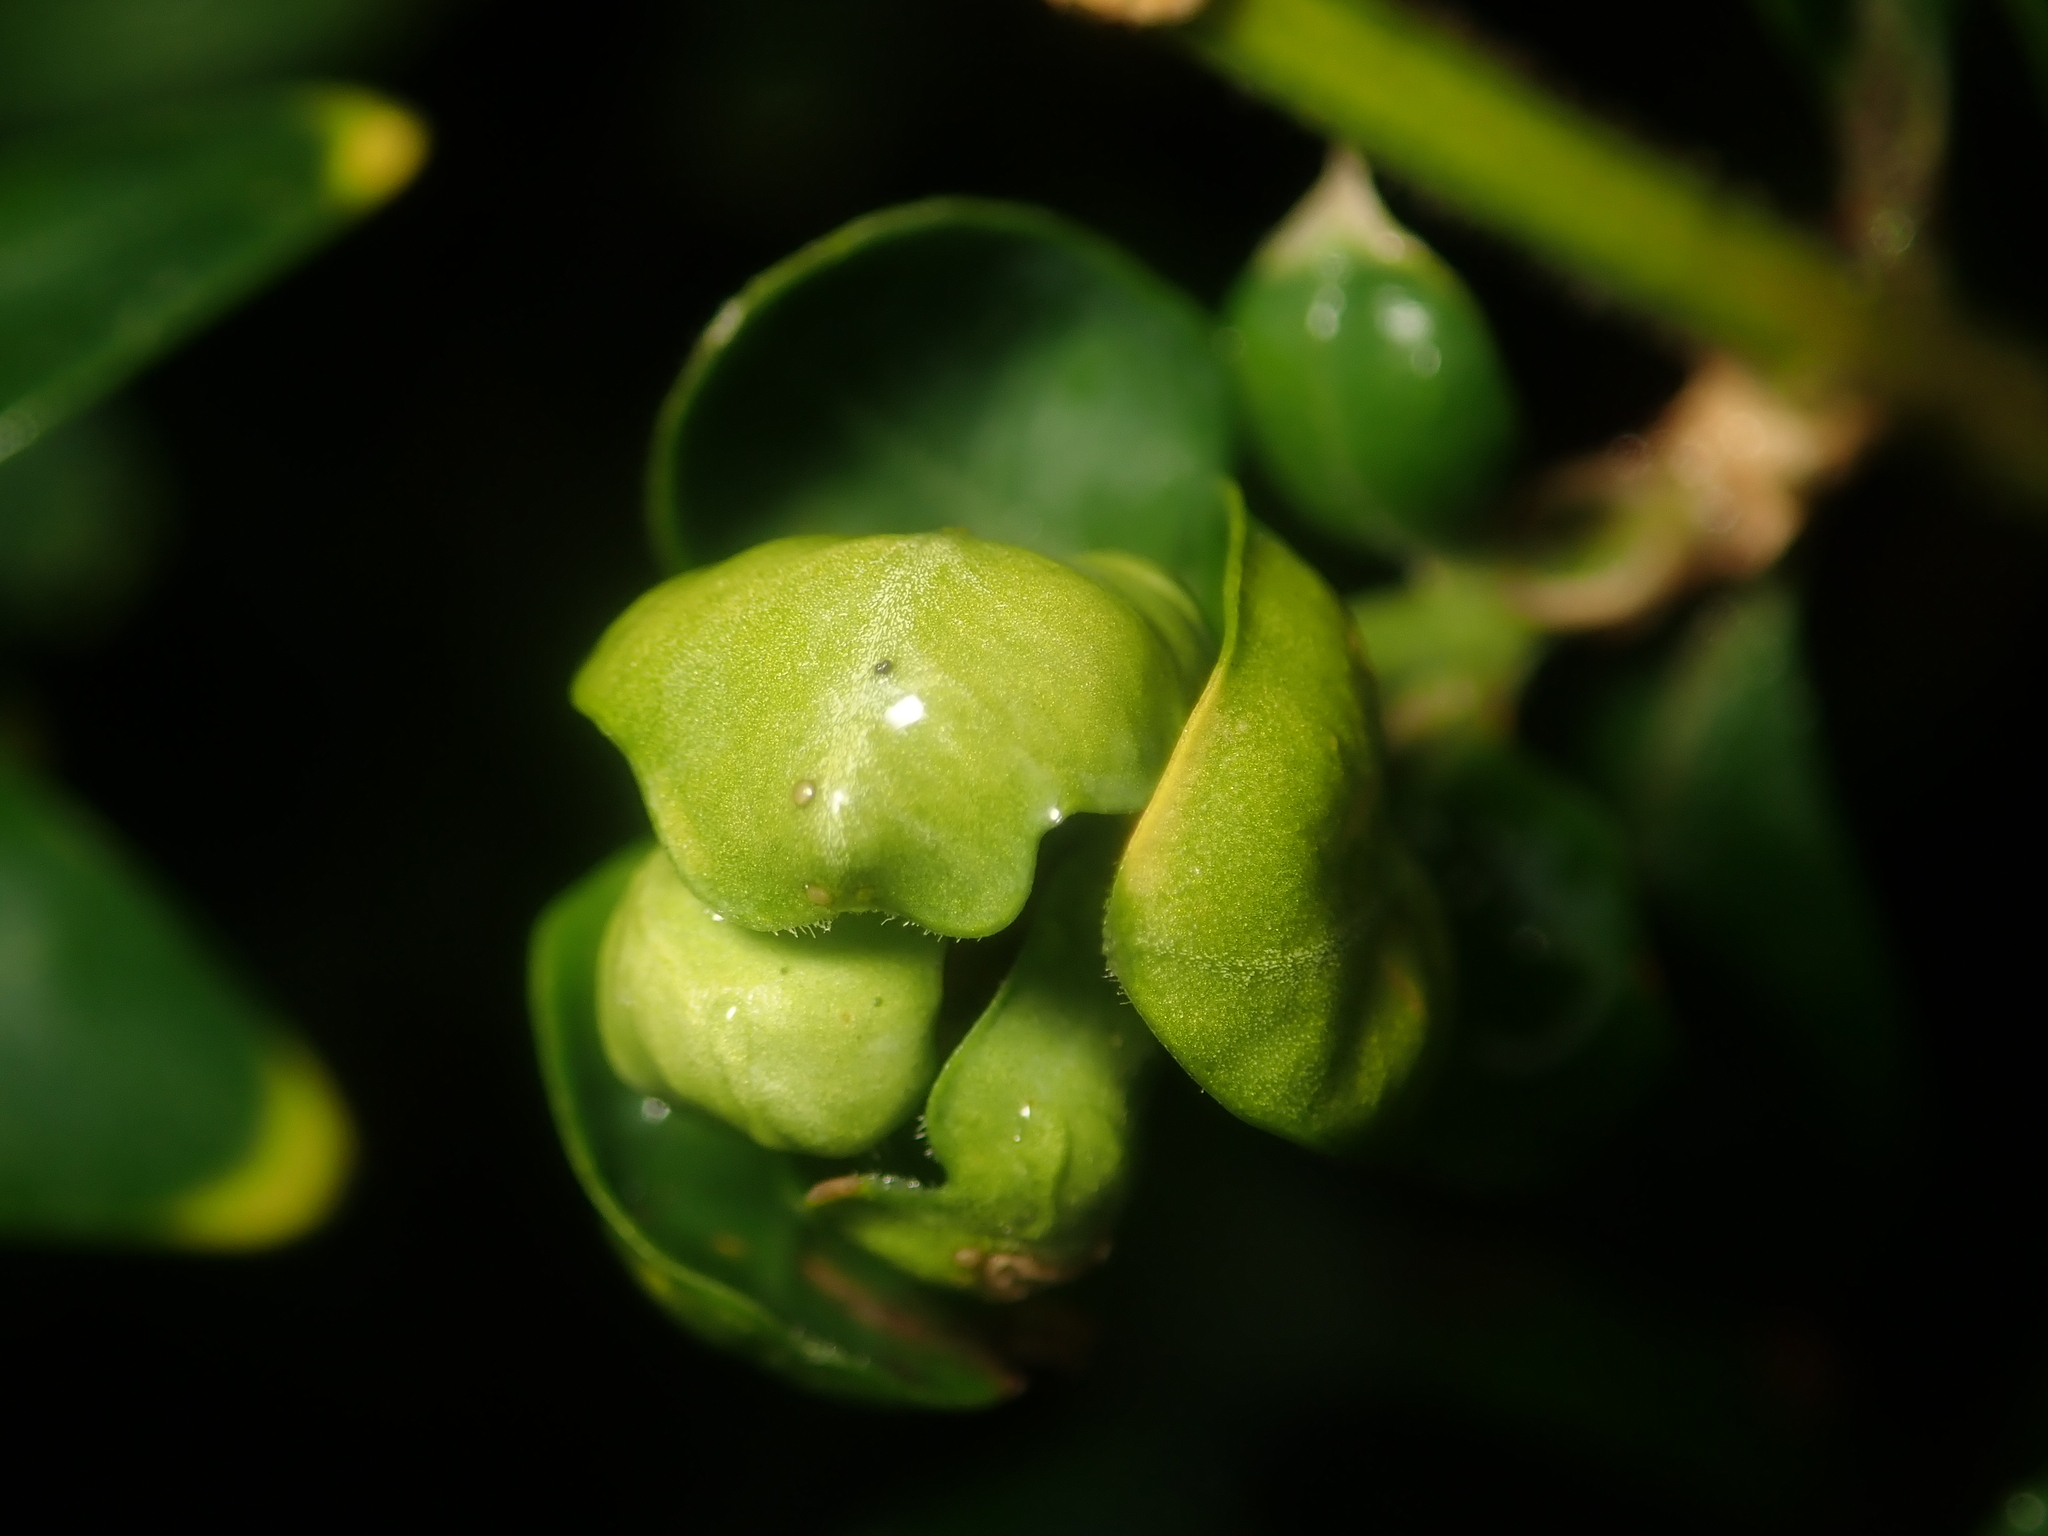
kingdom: Animalia
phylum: Arthropoda
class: Insecta
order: Hemiptera
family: Psyllidae
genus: Psylla
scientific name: Psylla buxi
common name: Boxwood psyllid
